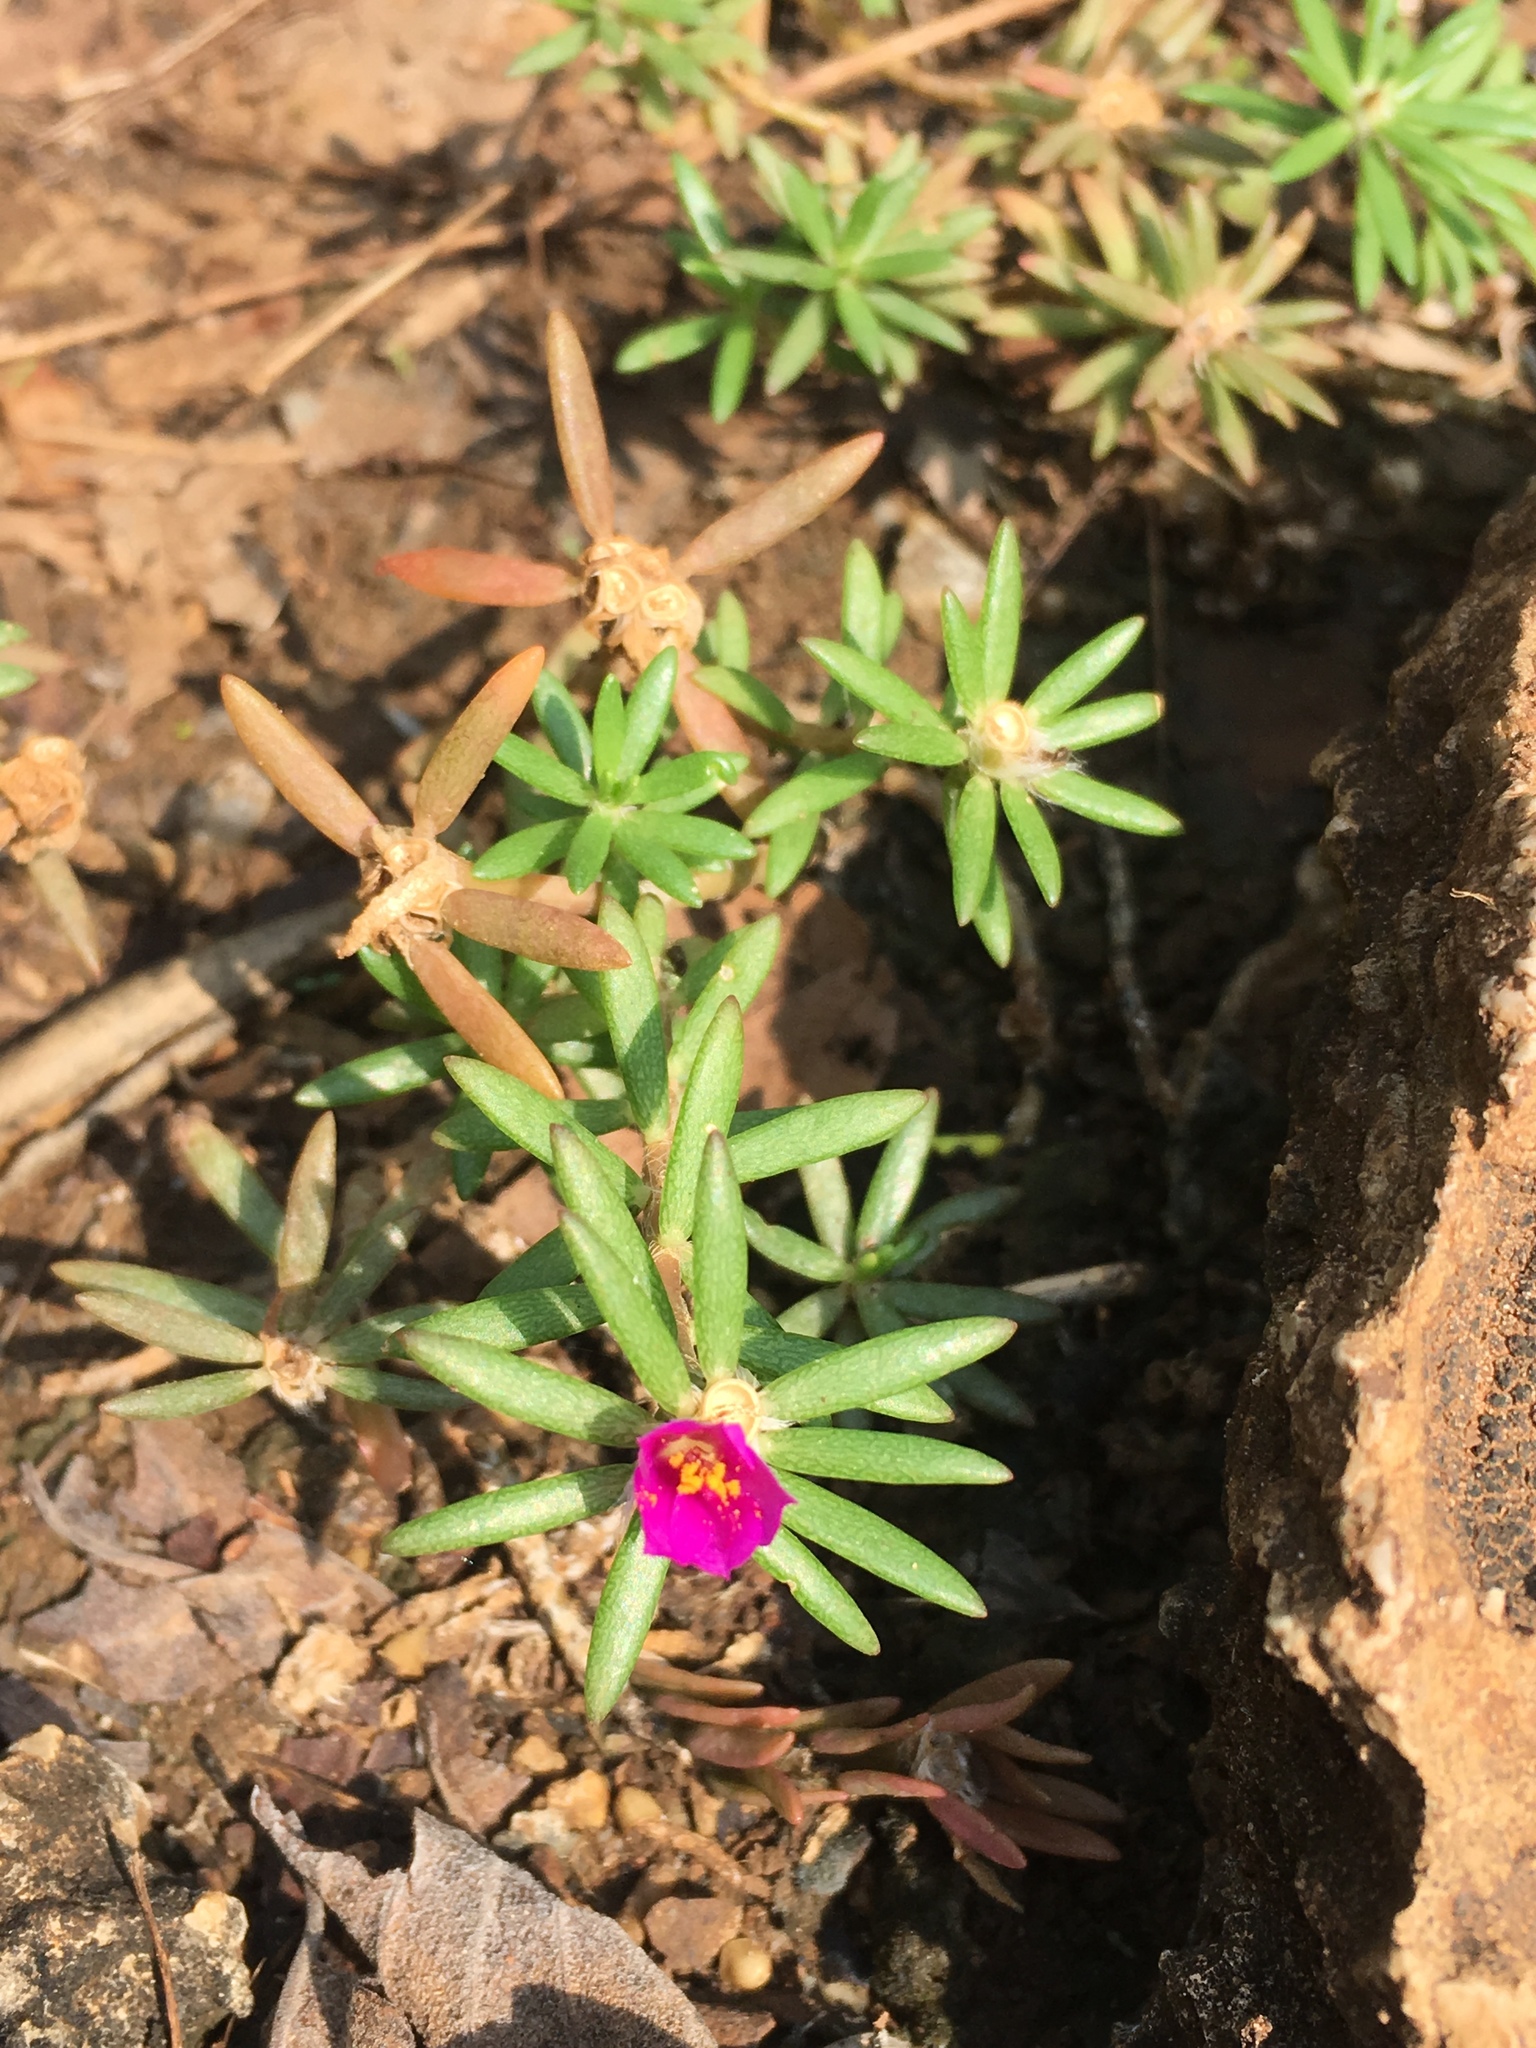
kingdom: Plantae
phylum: Tracheophyta
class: Magnoliopsida
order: Caryophyllales
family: Portulacaceae
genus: Portulaca
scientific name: Portulaca pilosa
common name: Kiss me quick
